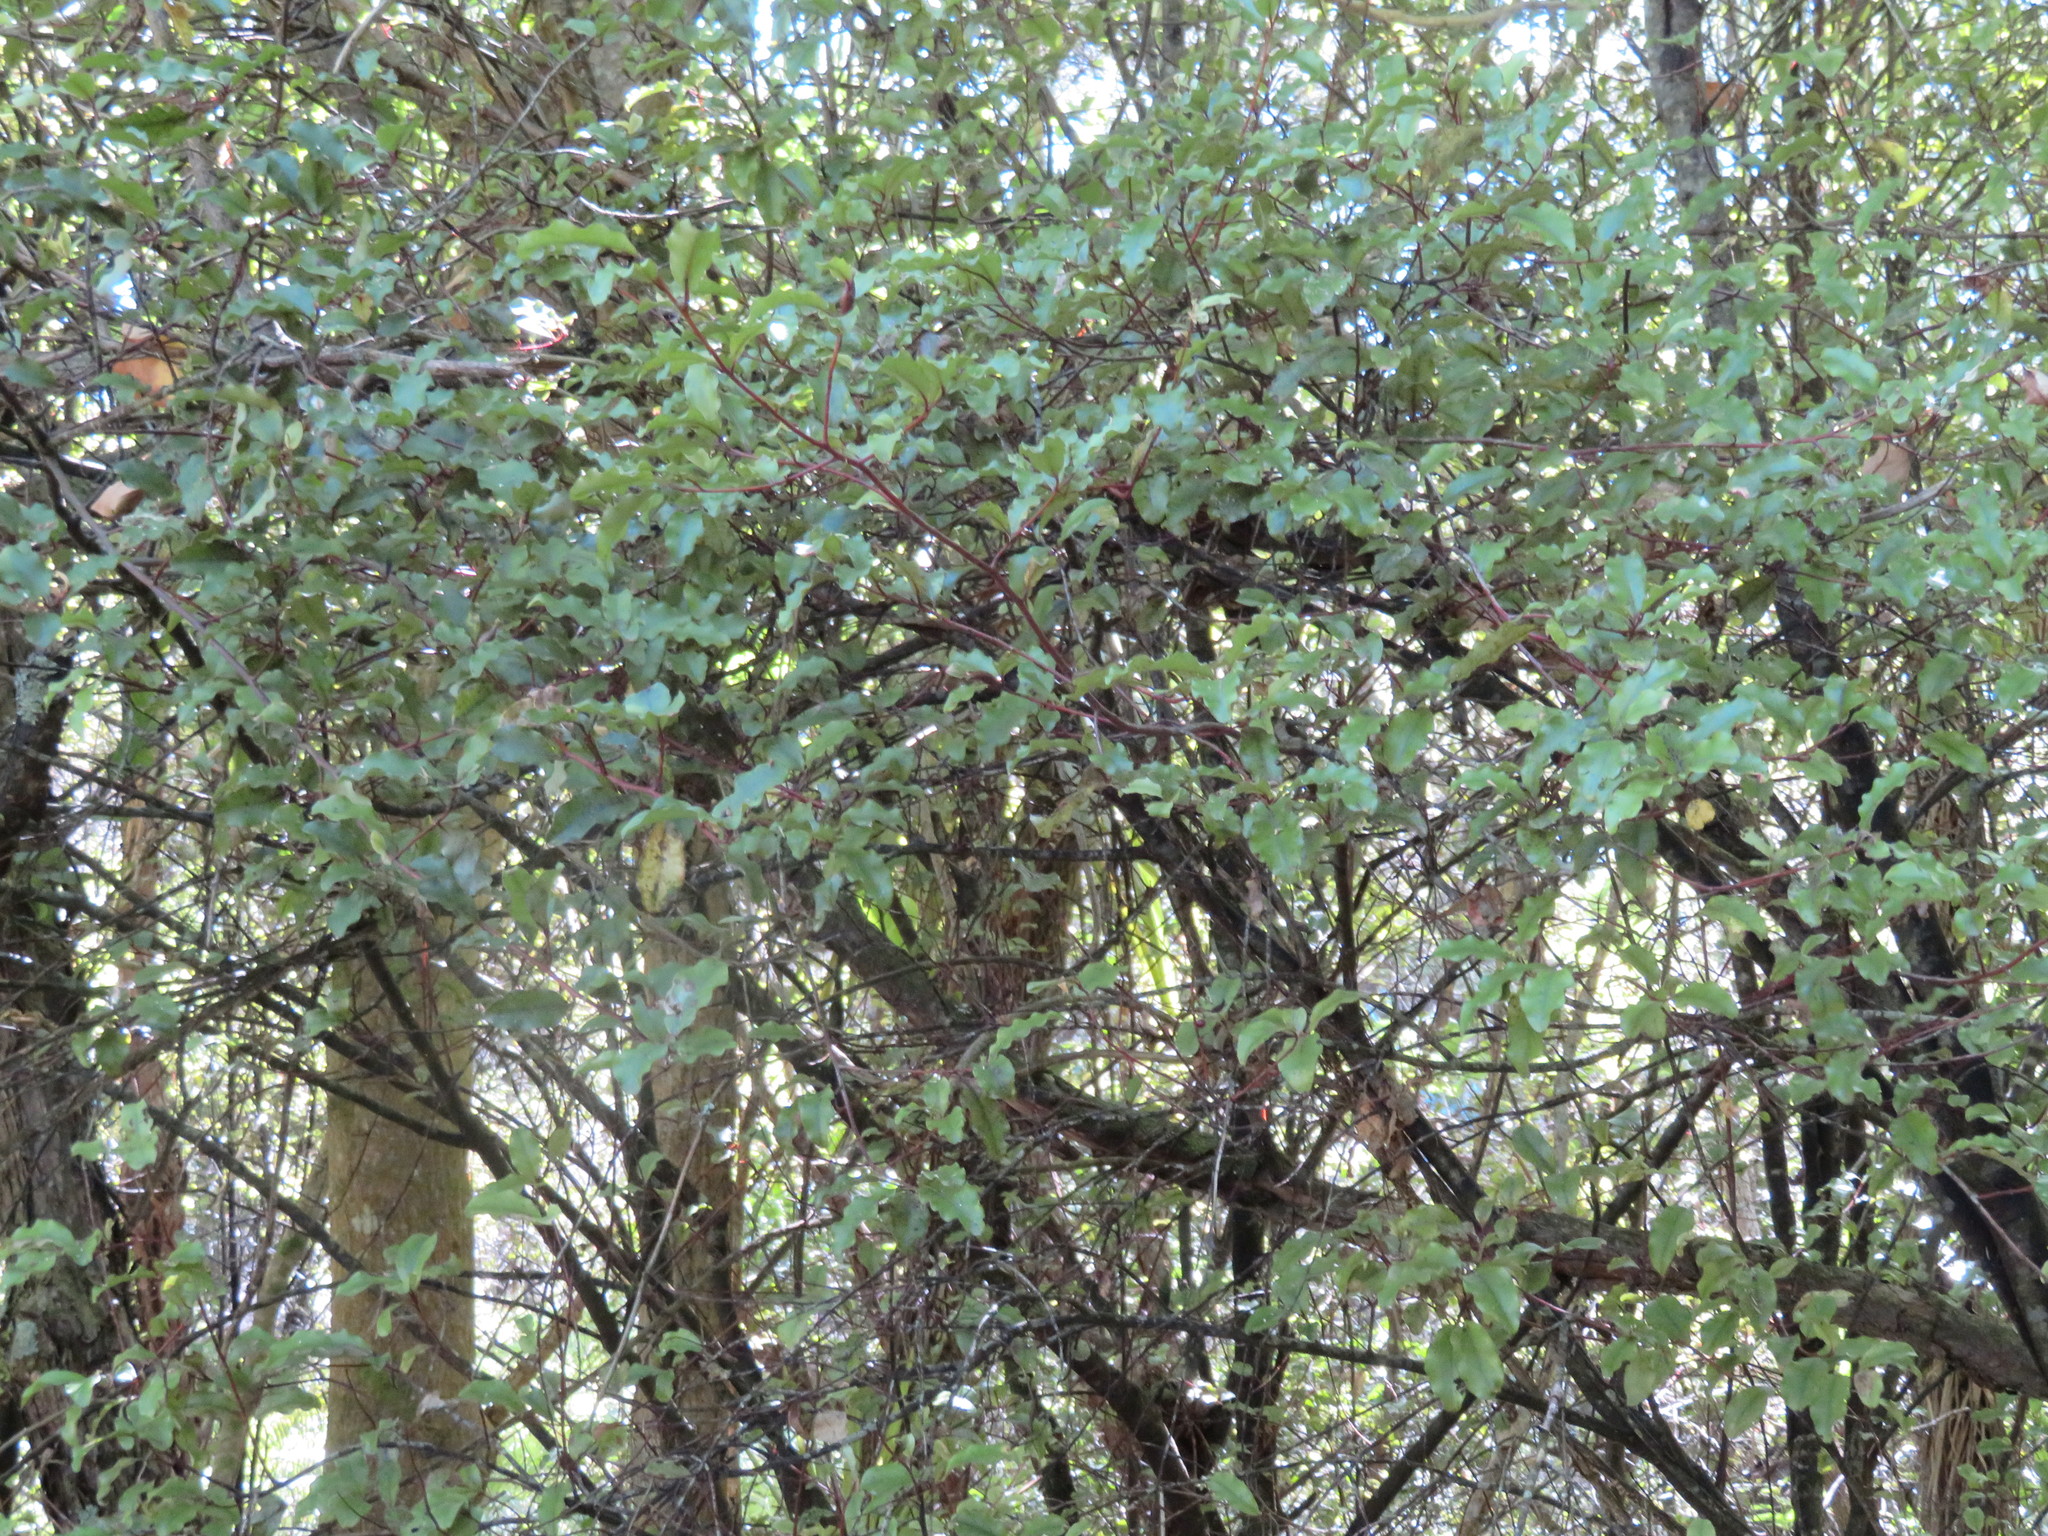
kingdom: Plantae
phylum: Tracheophyta
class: Magnoliopsida
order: Ericales
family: Primulaceae
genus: Myrsine
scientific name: Myrsine australis
